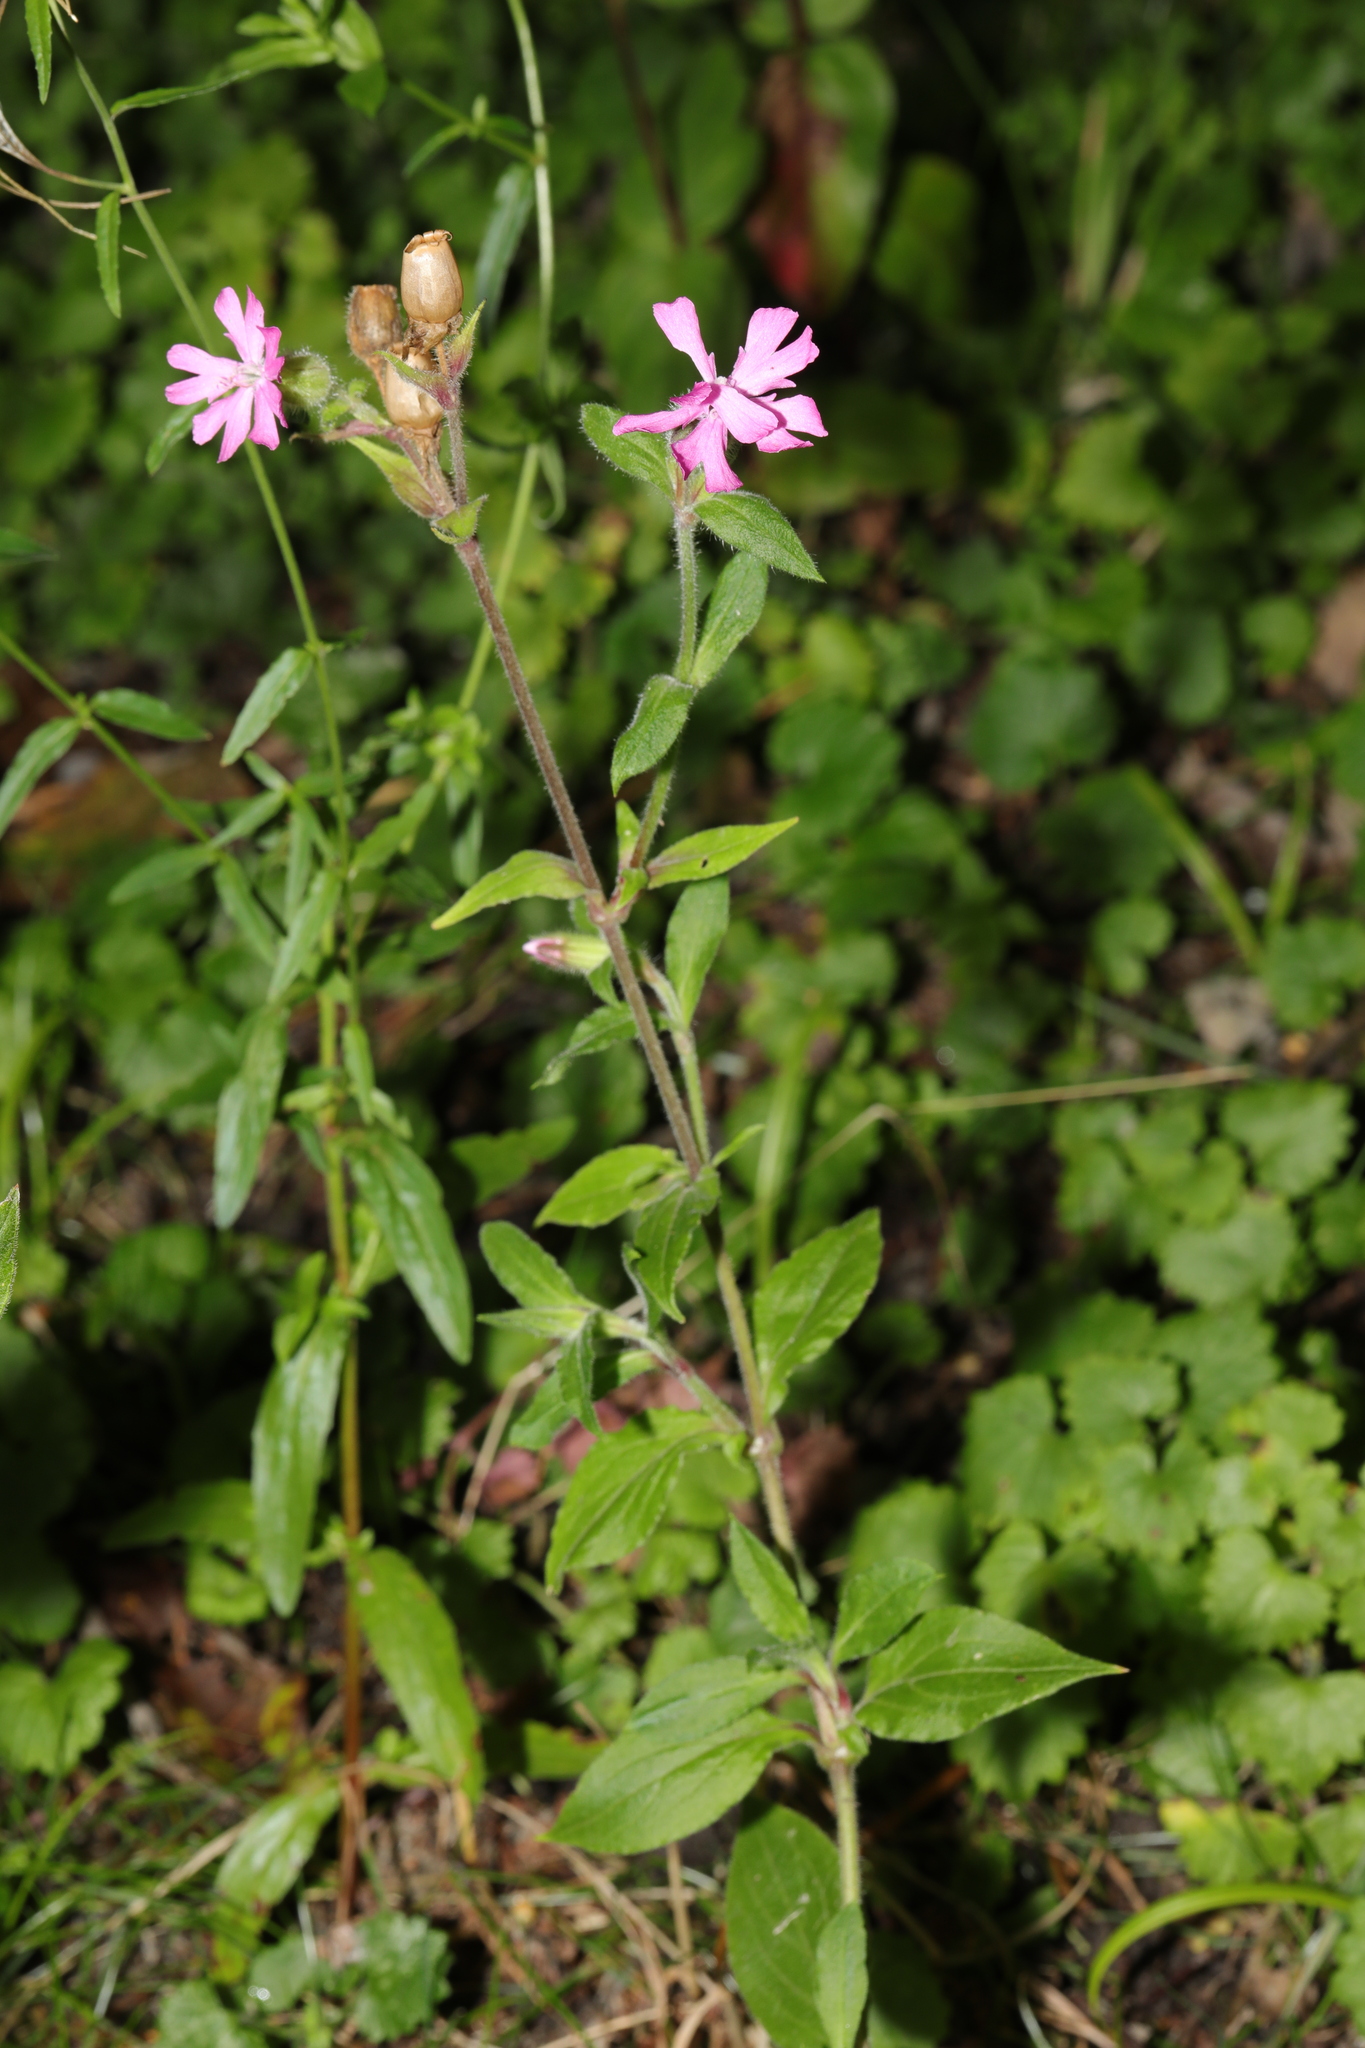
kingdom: Plantae
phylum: Tracheophyta
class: Magnoliopsida
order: Caryophyllales
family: Caryophyllaceae
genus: Silene
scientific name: Silene dioica
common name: Red campion
